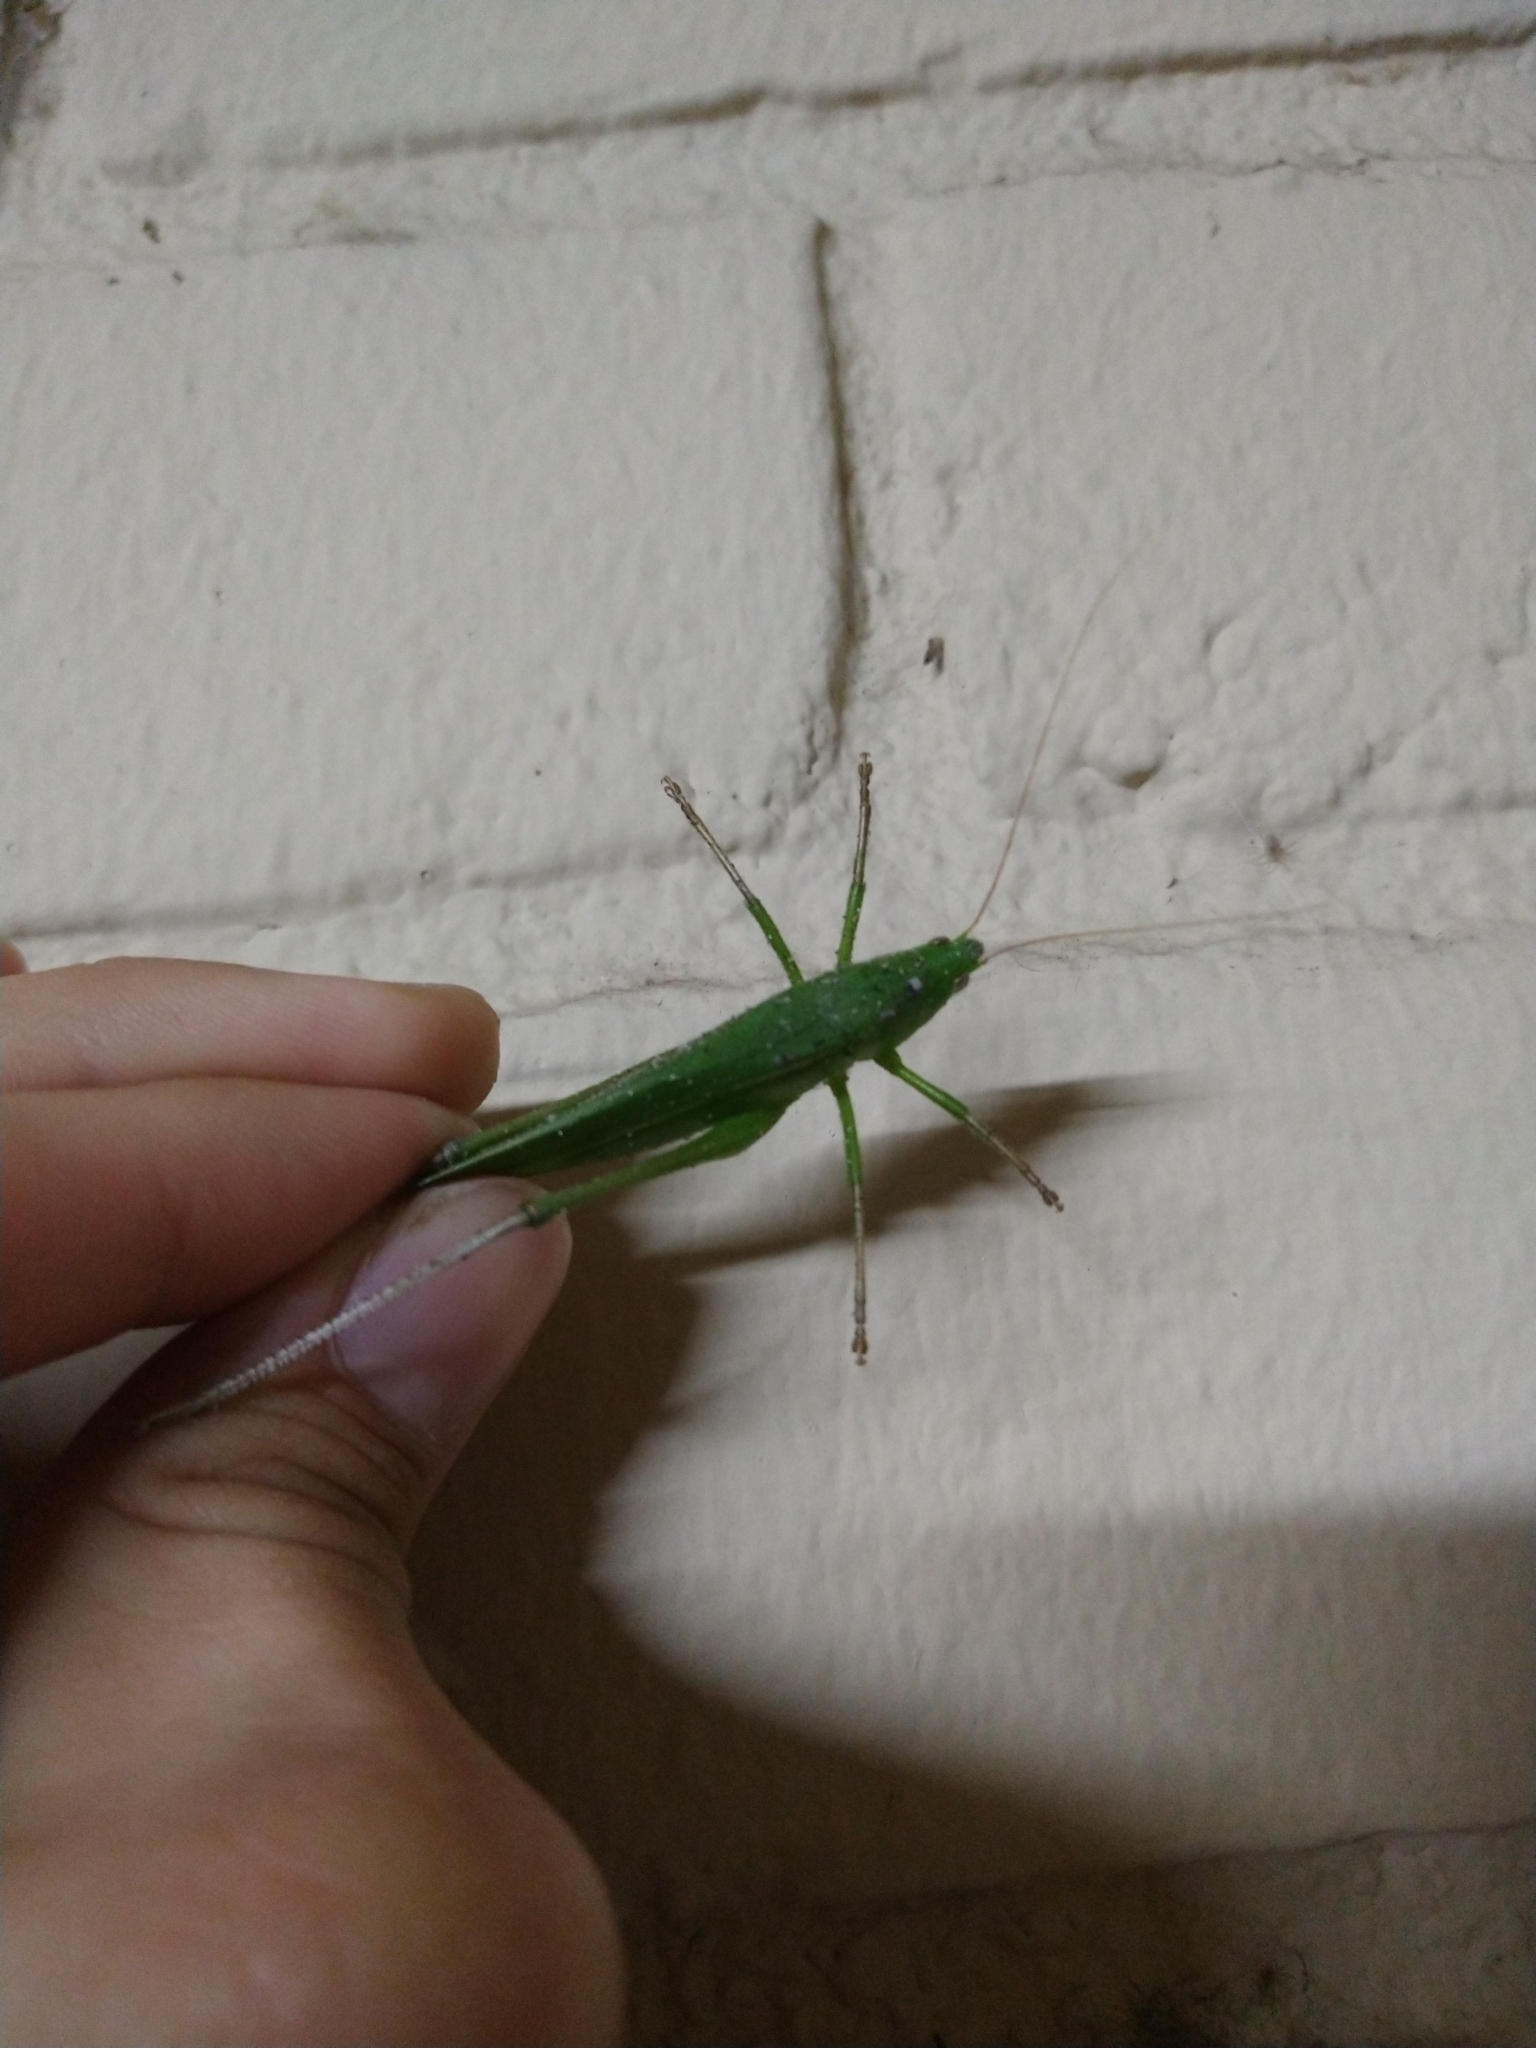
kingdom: Animalia
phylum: Arthropoda
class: Insecta
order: Orthoptera
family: Tettigoniidae
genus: Neoconocephalus
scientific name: Neoconocephalus triops
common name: Broad-tipped conehead
